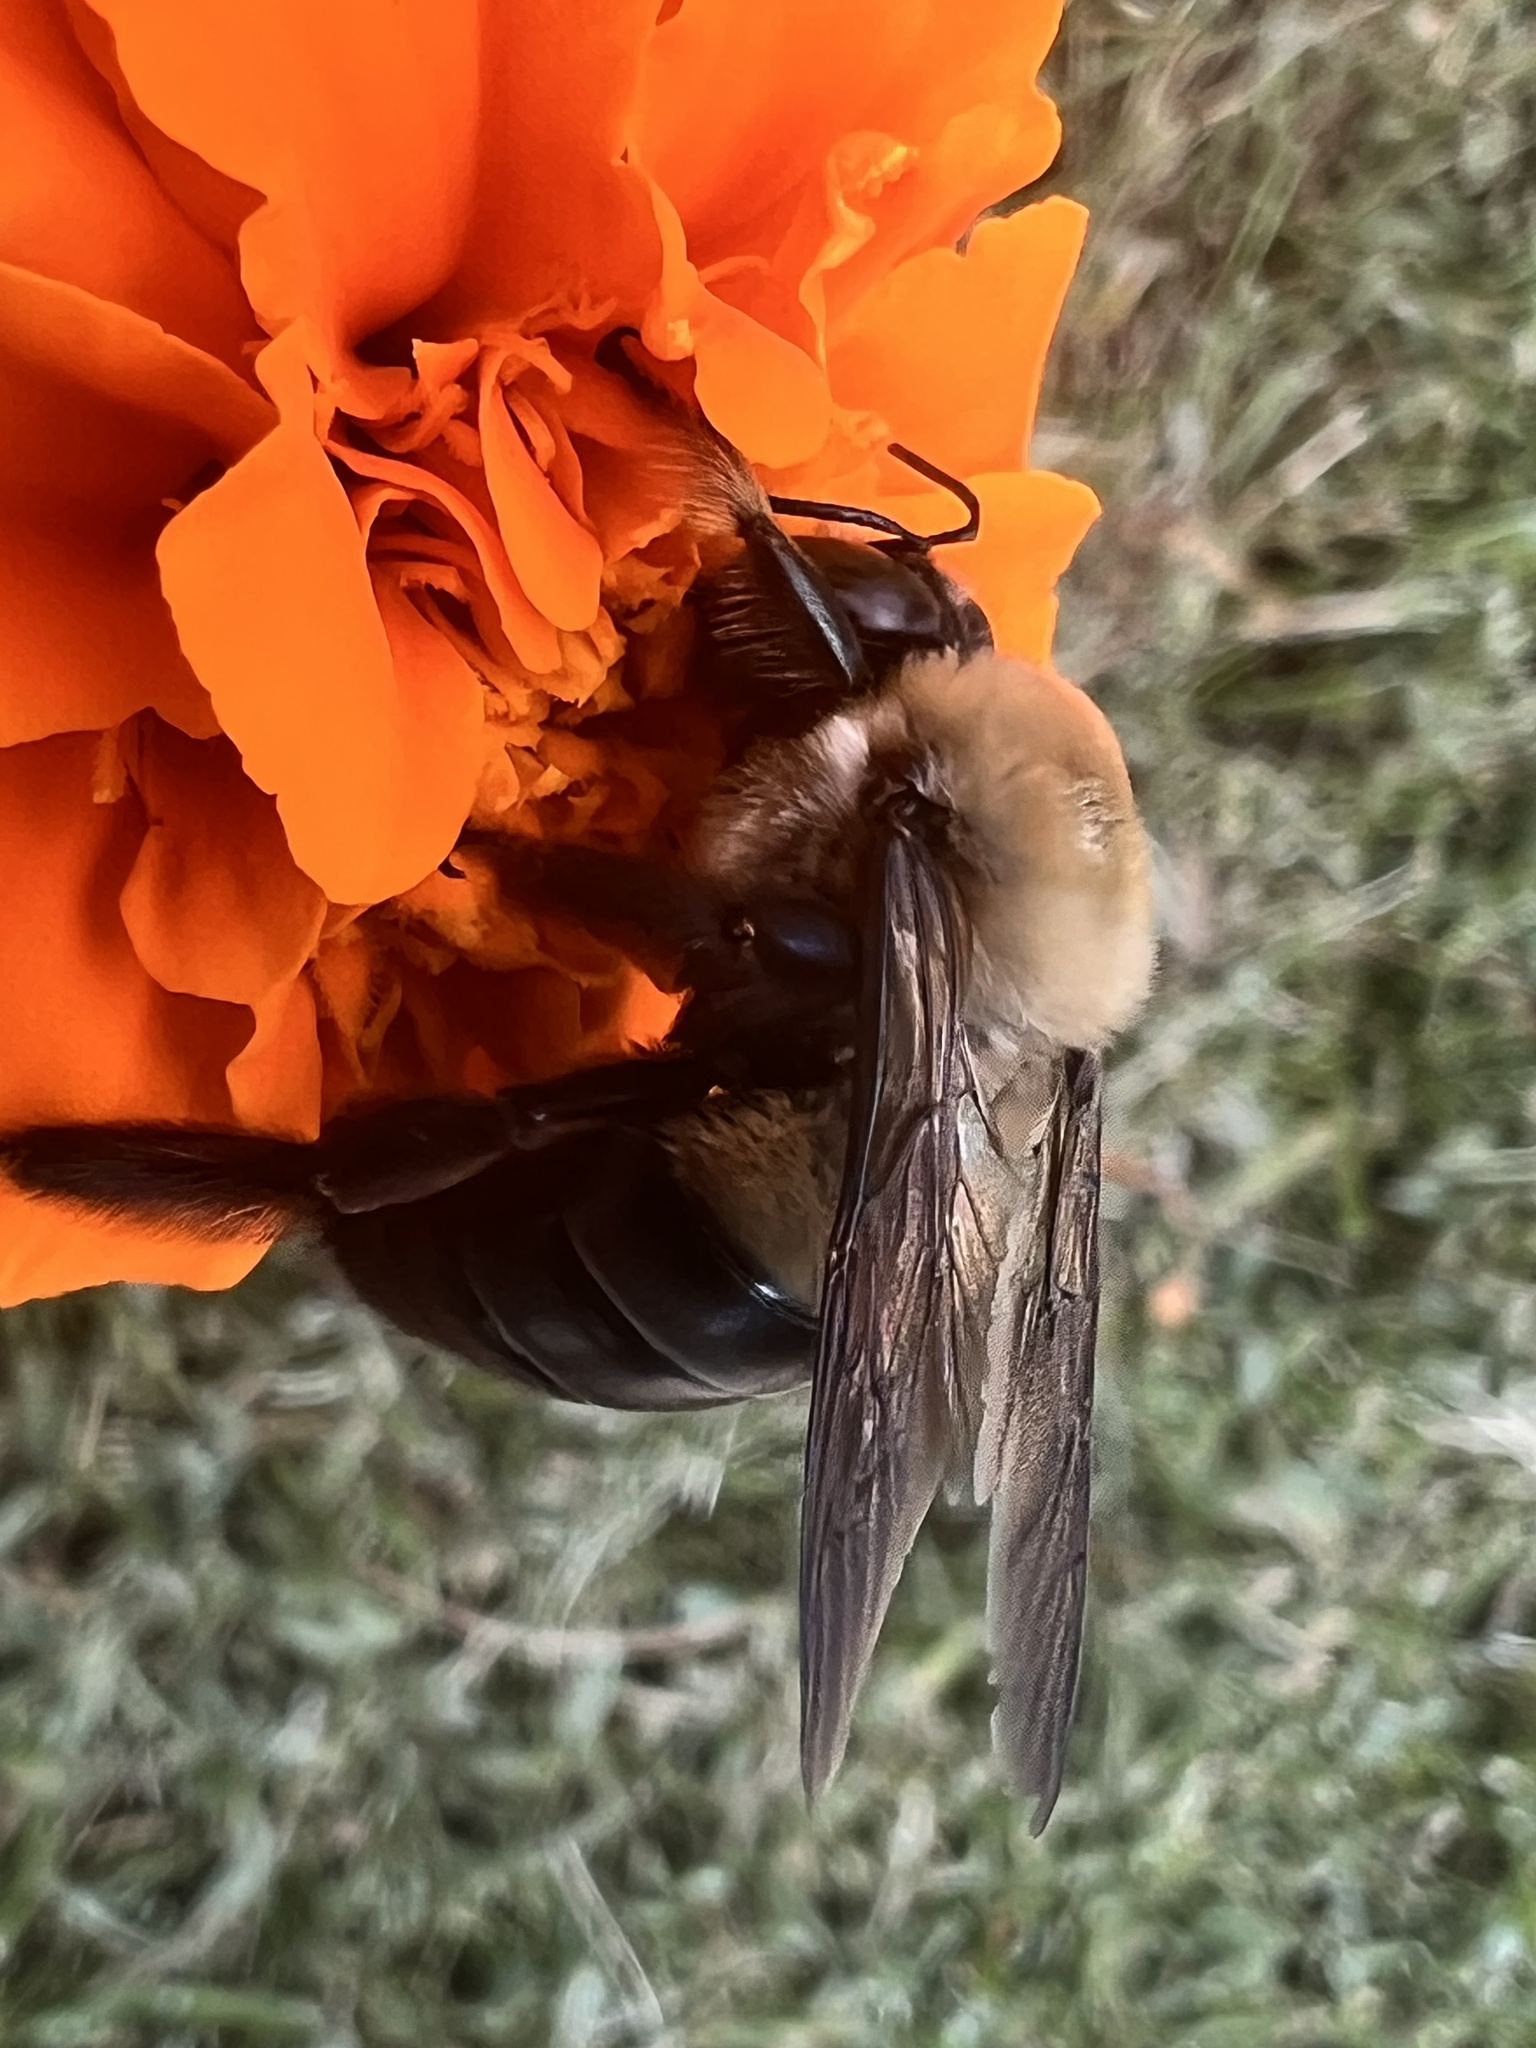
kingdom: Animalia
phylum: Arthropoda
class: Insecta
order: Hymenoptera
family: Apidae
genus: Xylocopa
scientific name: Xylocopa virginica
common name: Carpenter bee
